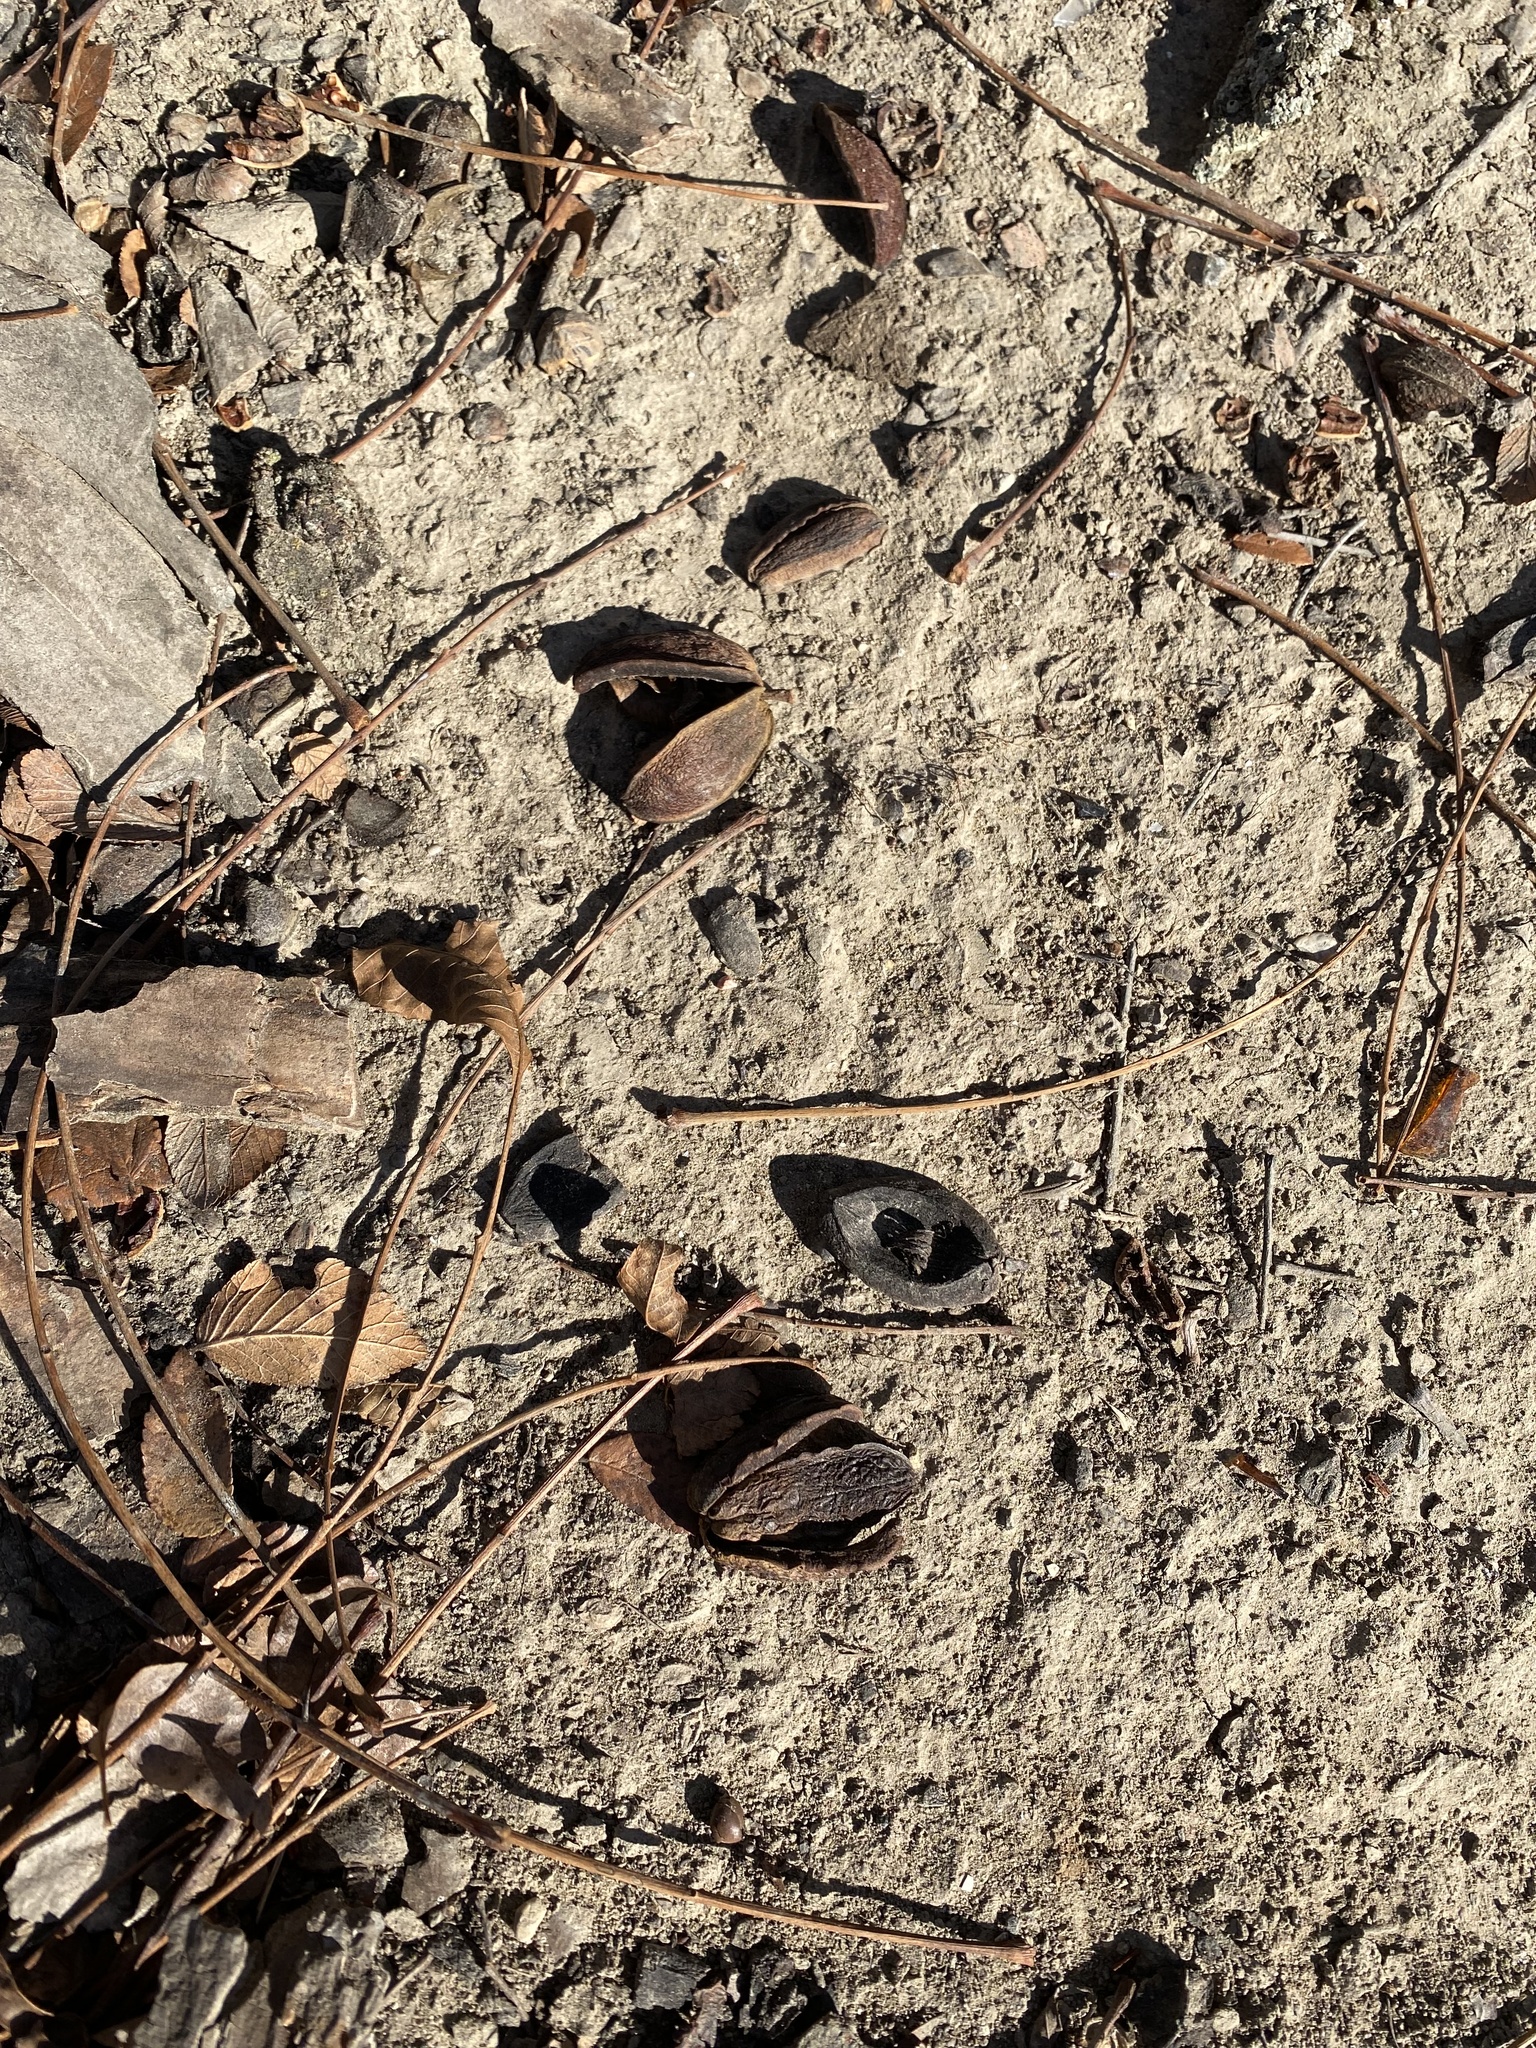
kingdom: Plantae
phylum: Tracheophyta
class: Magnoliopsida
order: Fagales
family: Juglandaceae
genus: Carya
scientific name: Carya illinoinensis
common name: Pecan
